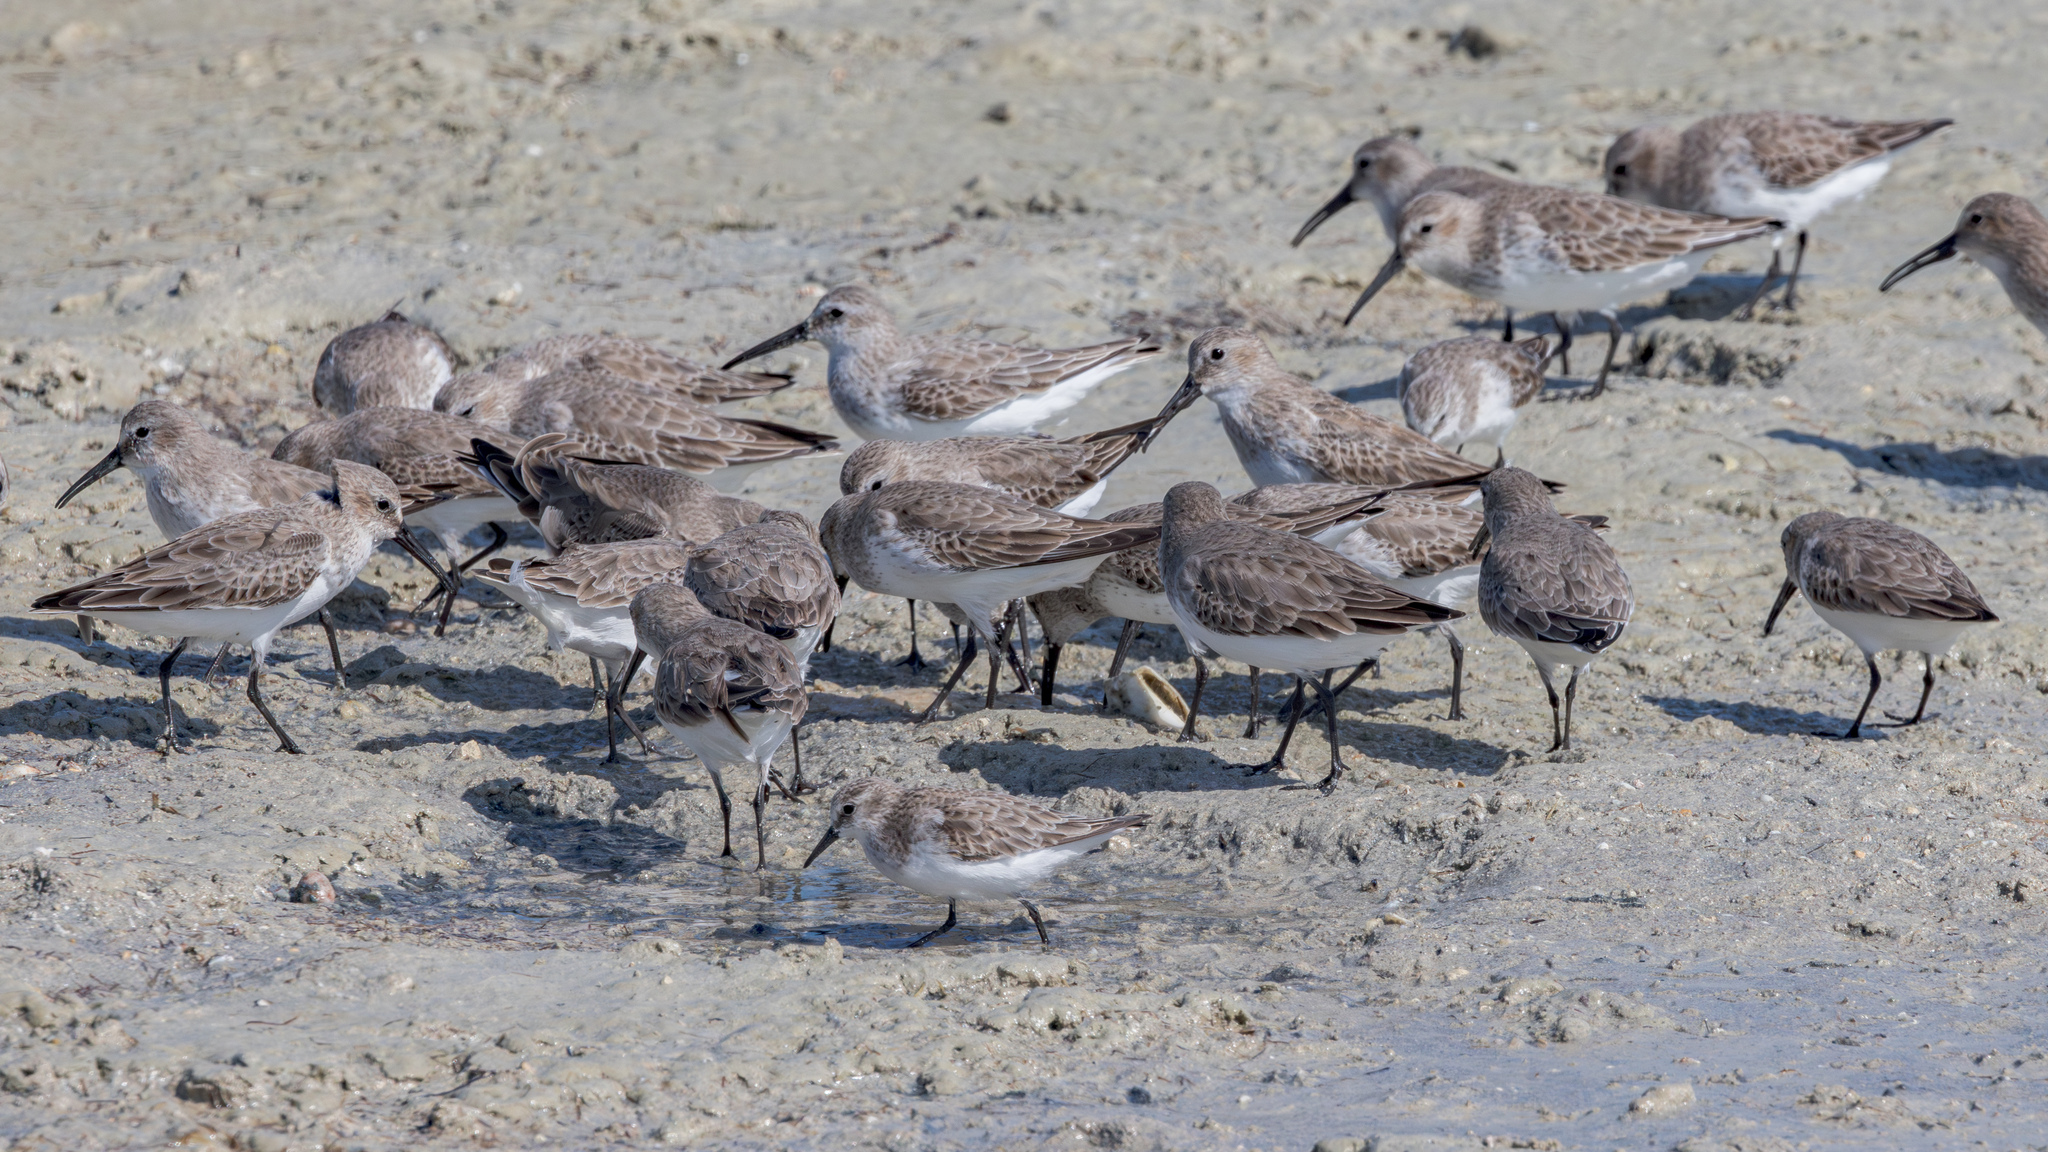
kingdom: Animalia
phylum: Chordata
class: Aves
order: Charadriiformes
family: Scolopacidae
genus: Calidris
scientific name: Calidris alpina
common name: Dunlin
